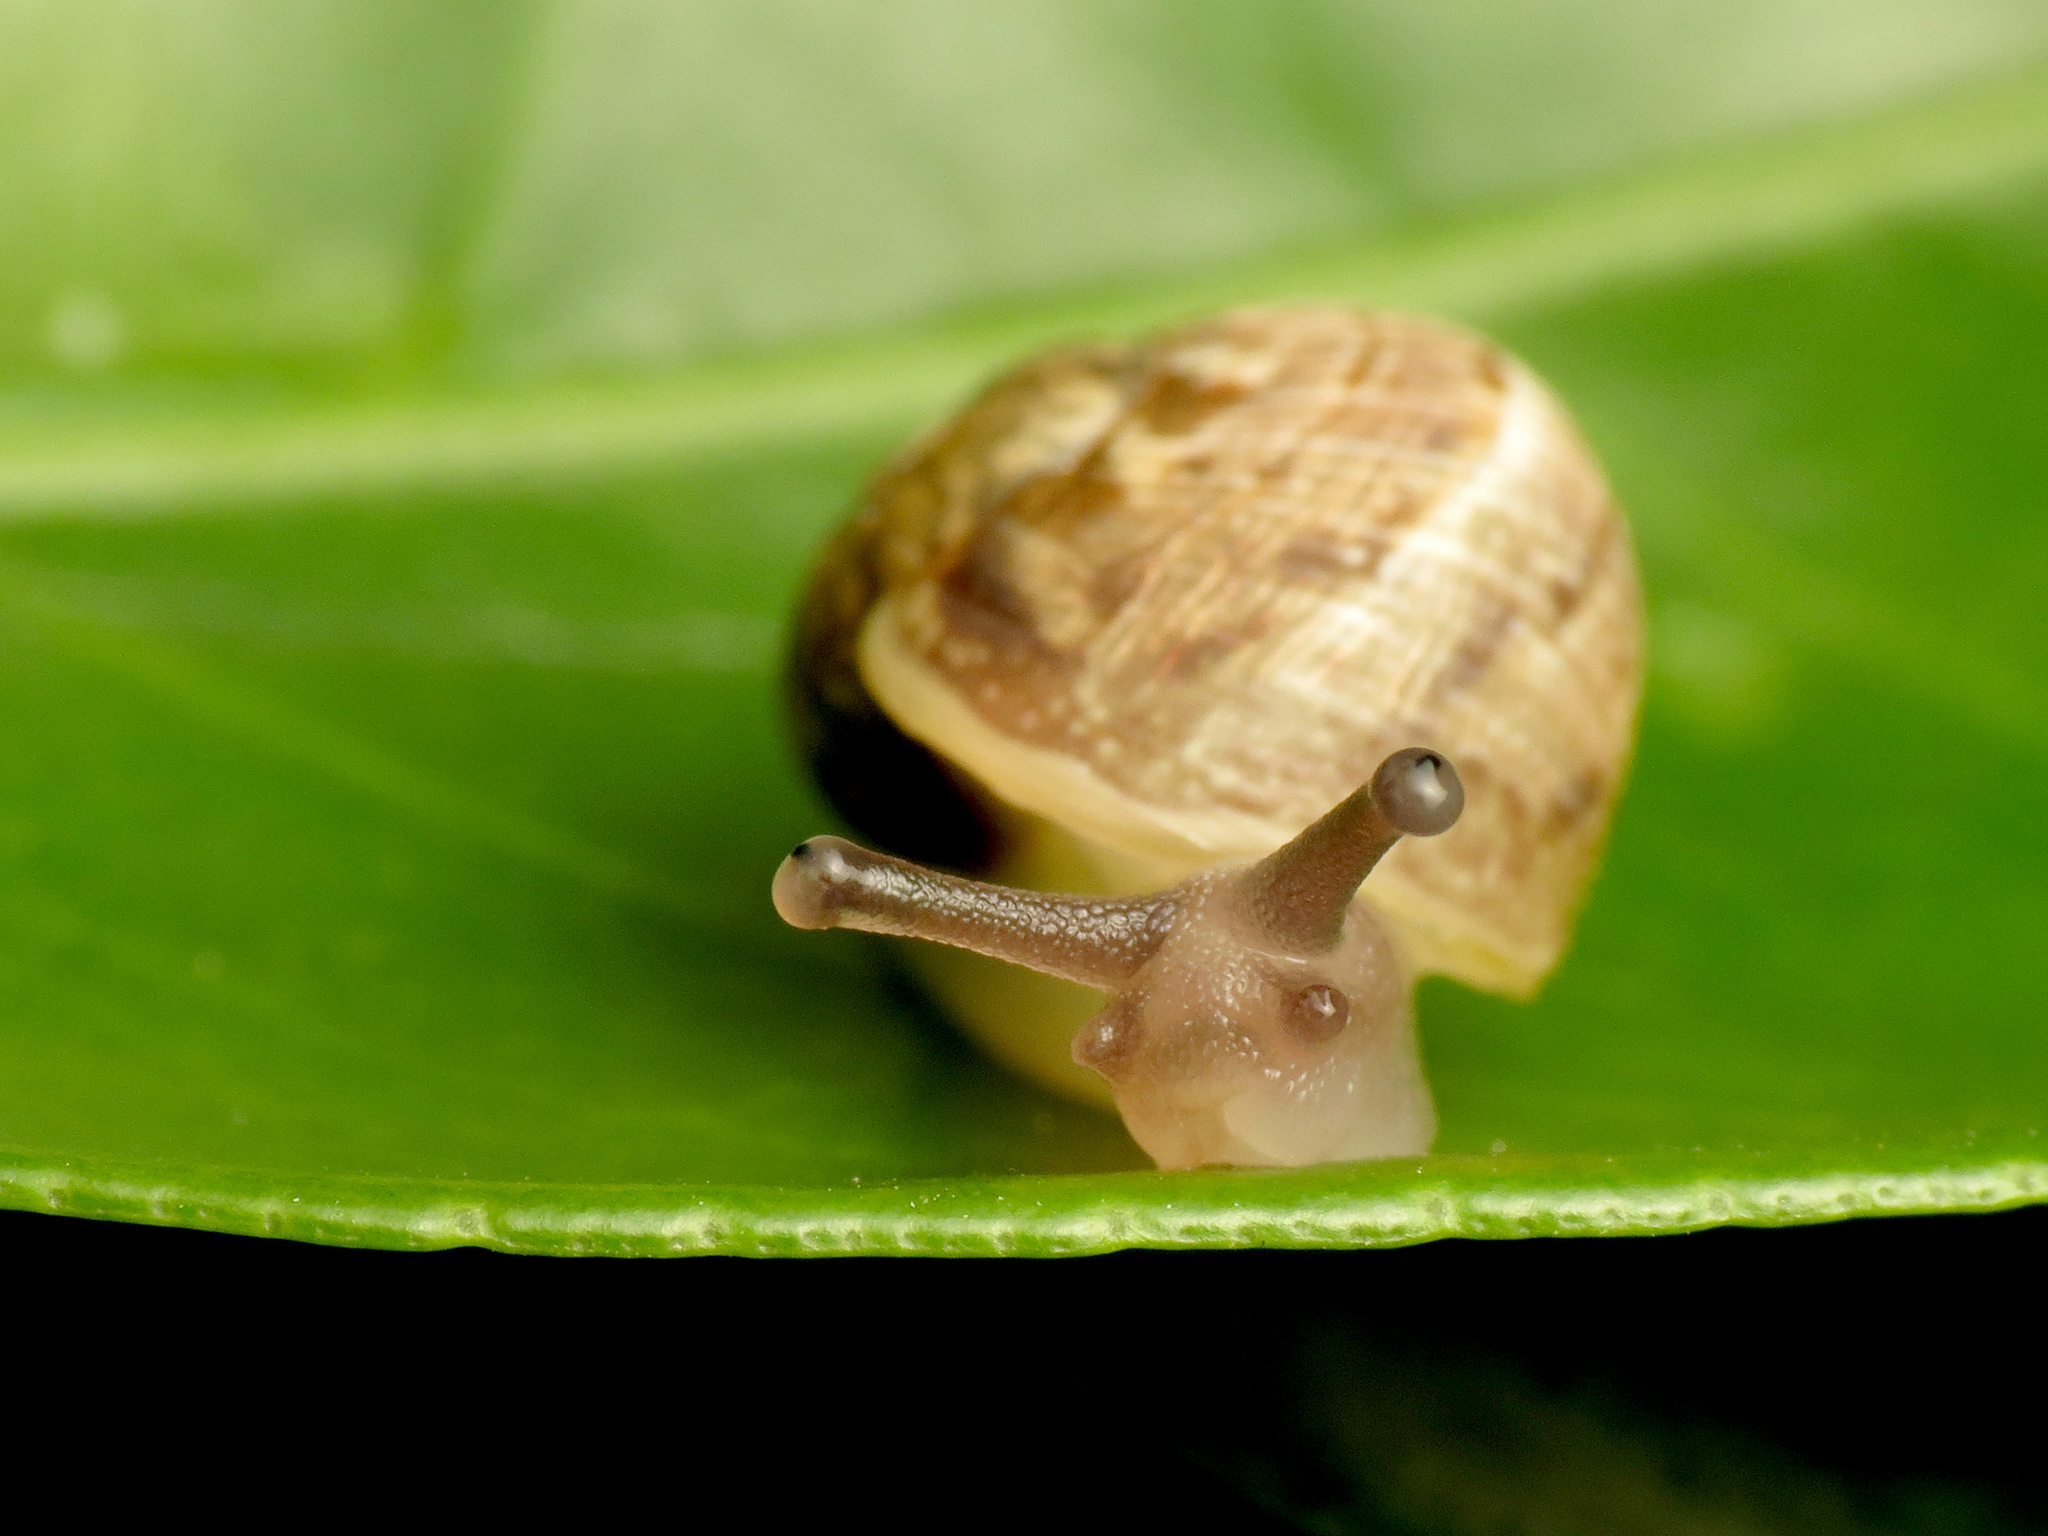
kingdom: Animalia
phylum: Mollusca
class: Gastropoda
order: Stylommatophora
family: Helicidae
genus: Cornu
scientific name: Cornu aspersum
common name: Brown garden snail
